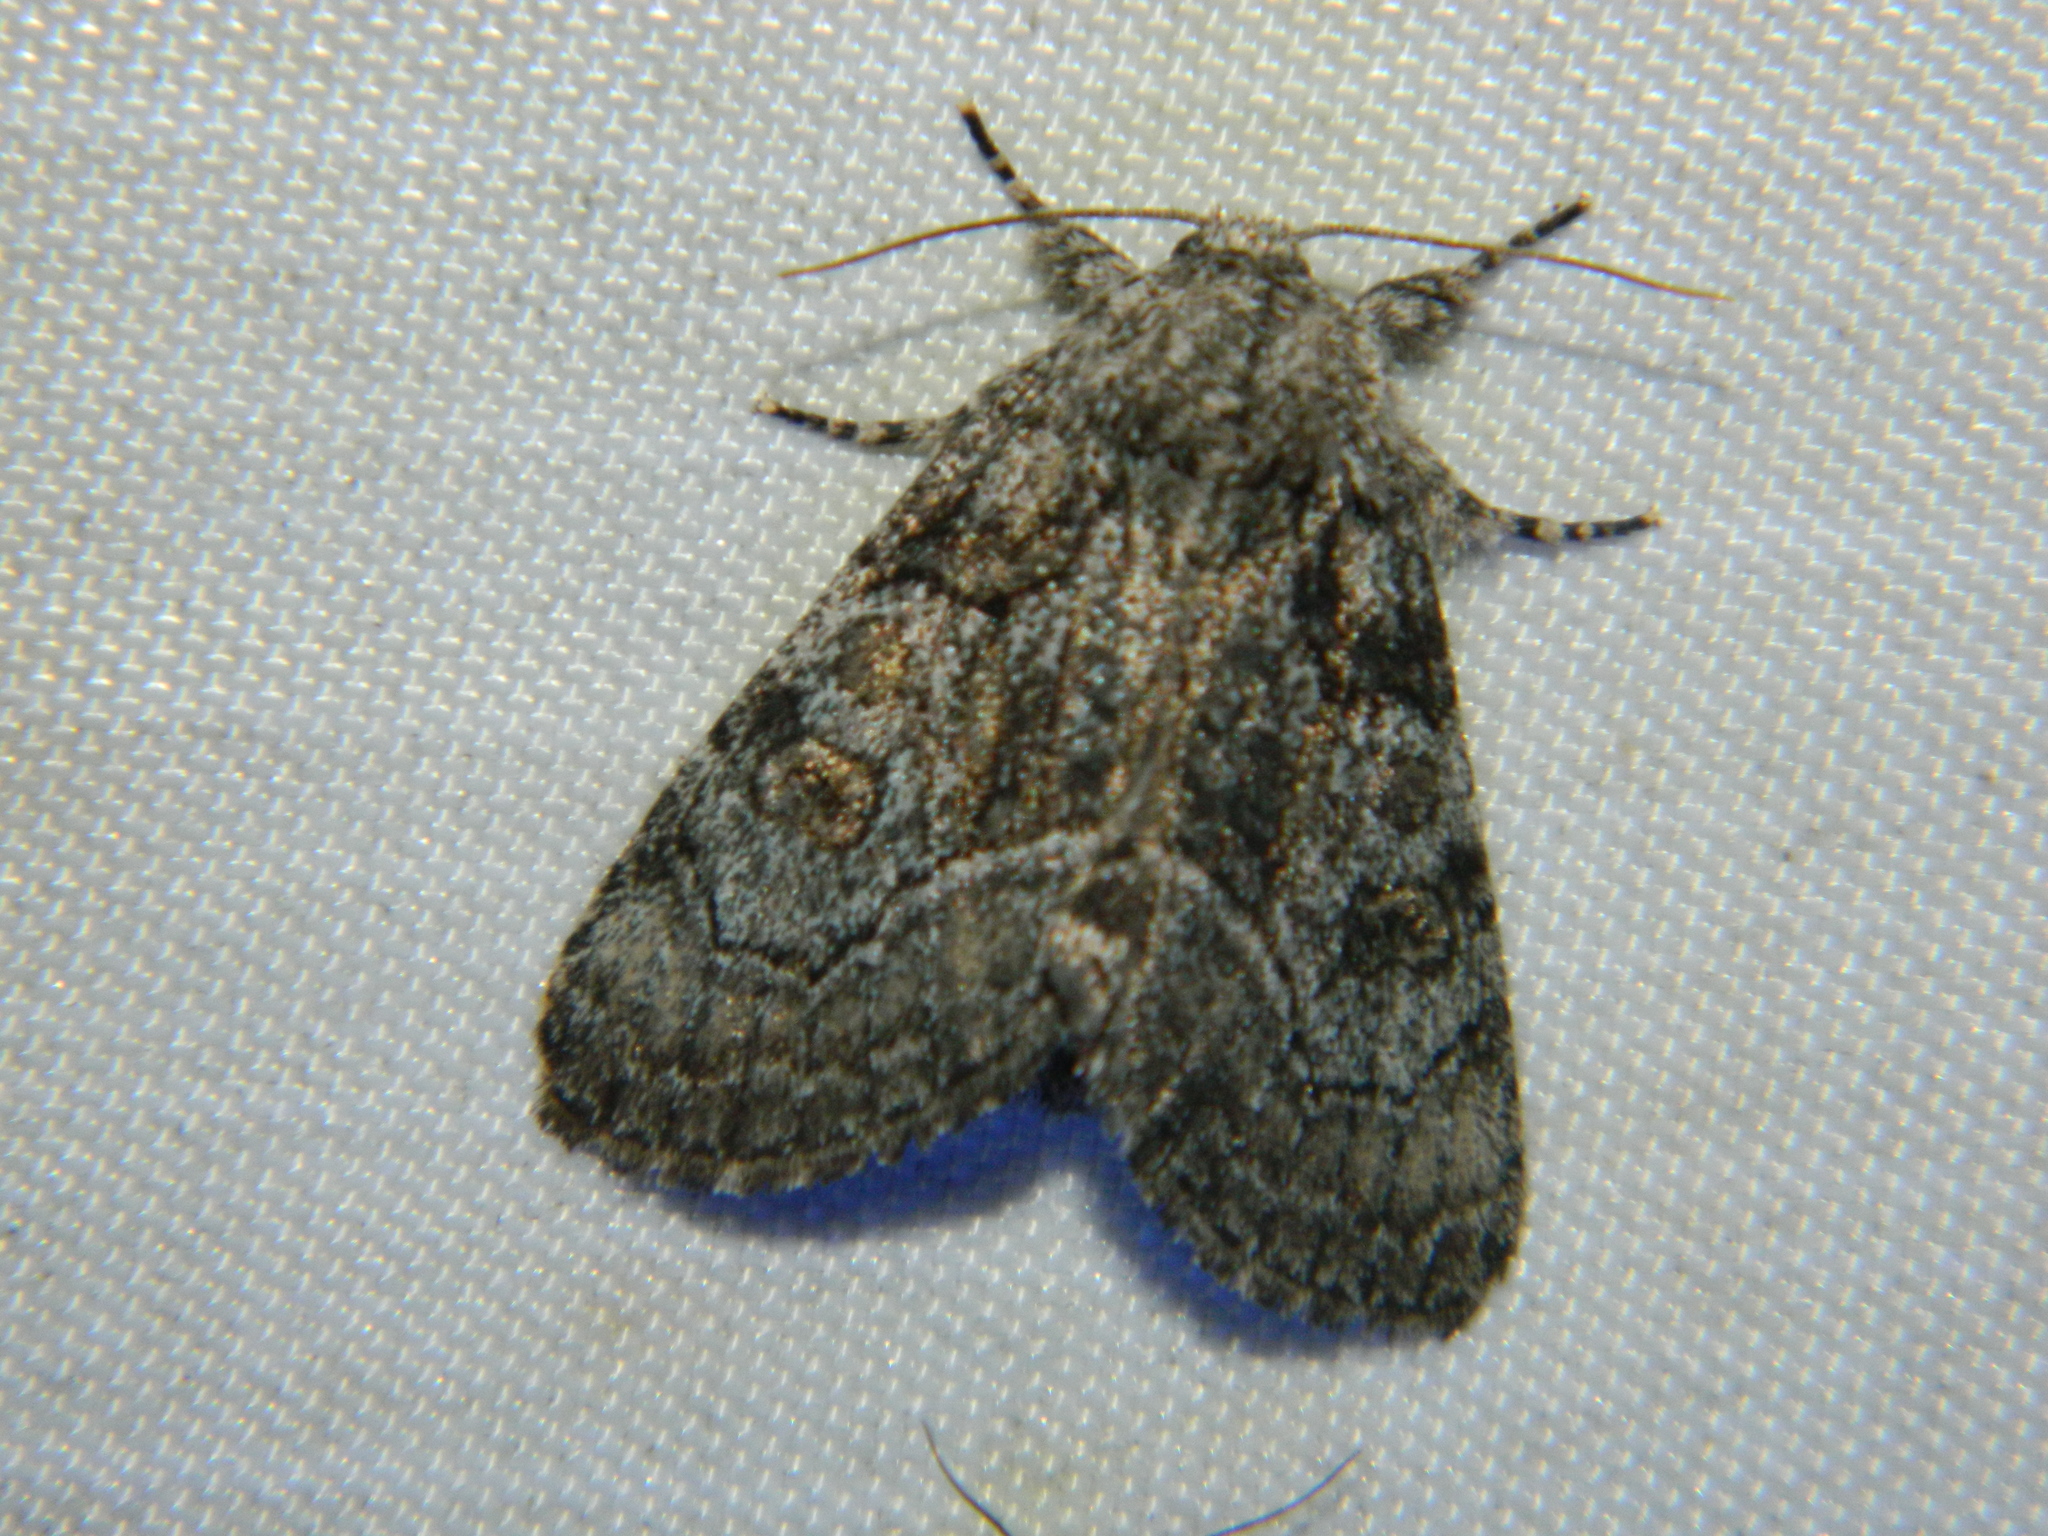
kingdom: Animalia
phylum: Arthropoda
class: Insecta
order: Lepidoptera
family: Noctuidae
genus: Raphia
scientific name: Raphia frater
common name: Brother
